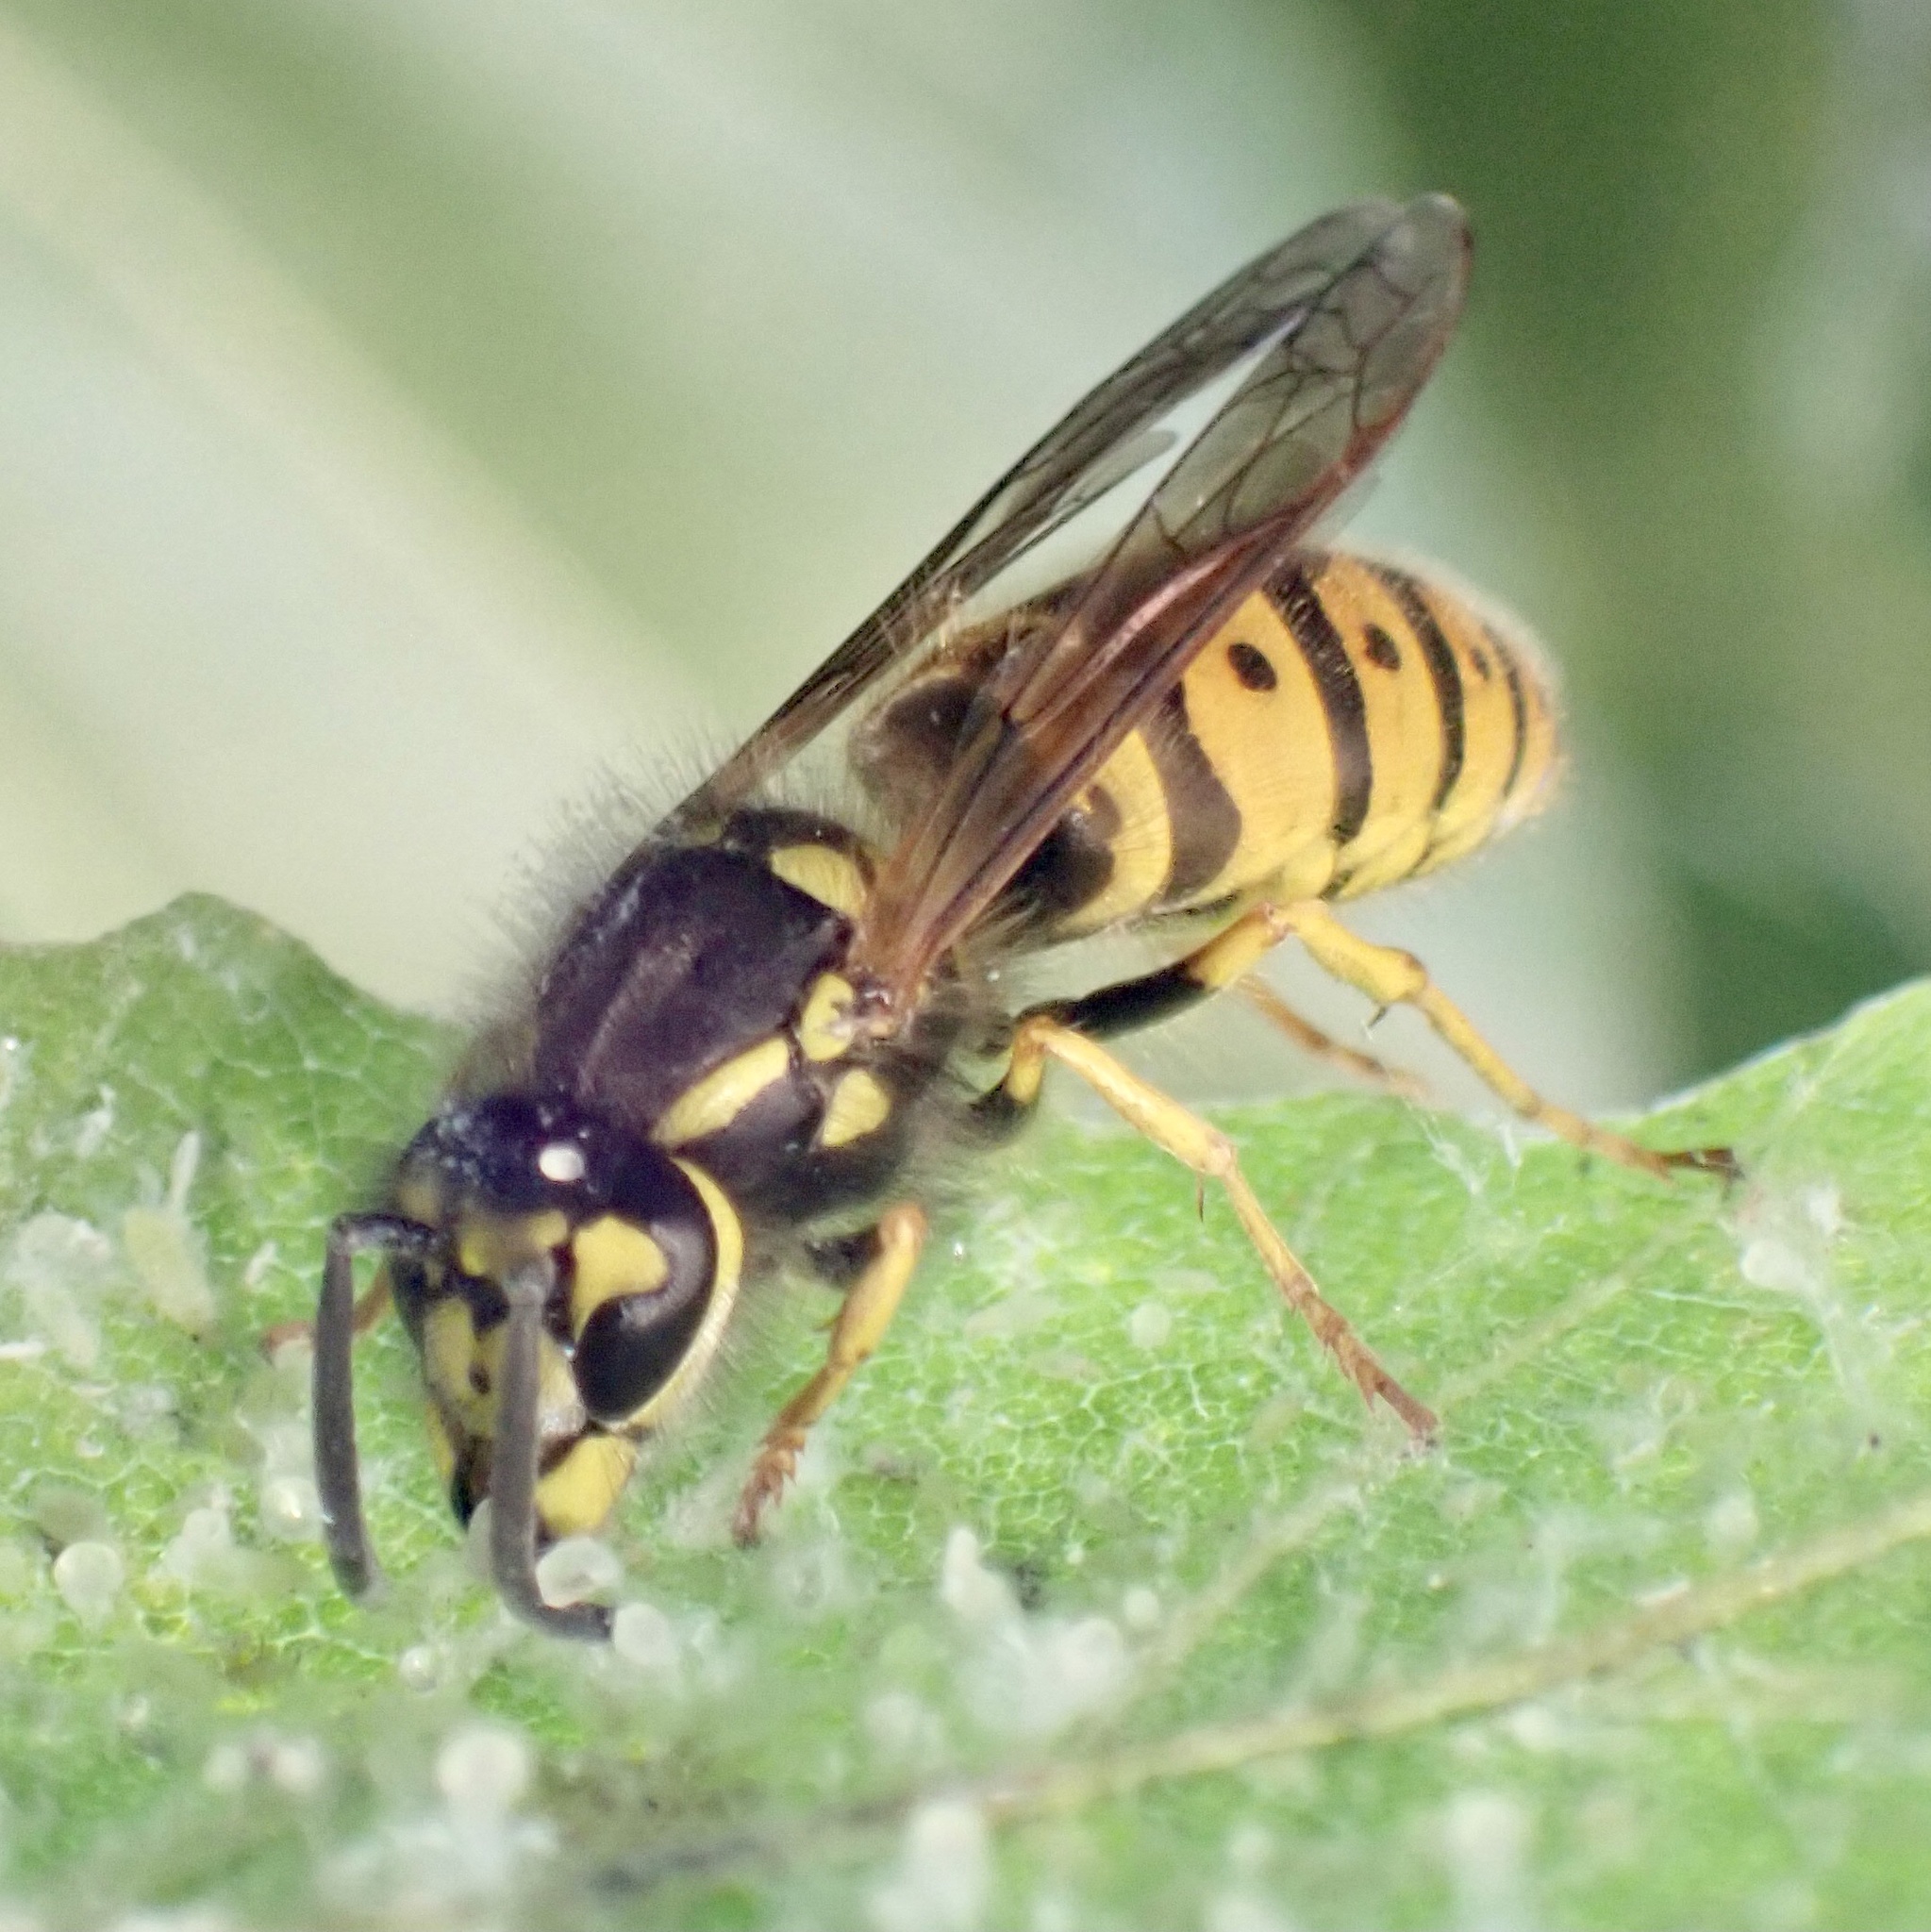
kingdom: Animalia
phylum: Arthropoda
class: Insecta
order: Hymenoptera
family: Vespidae
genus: Vespula
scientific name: Vespula germanica
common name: German wasp
